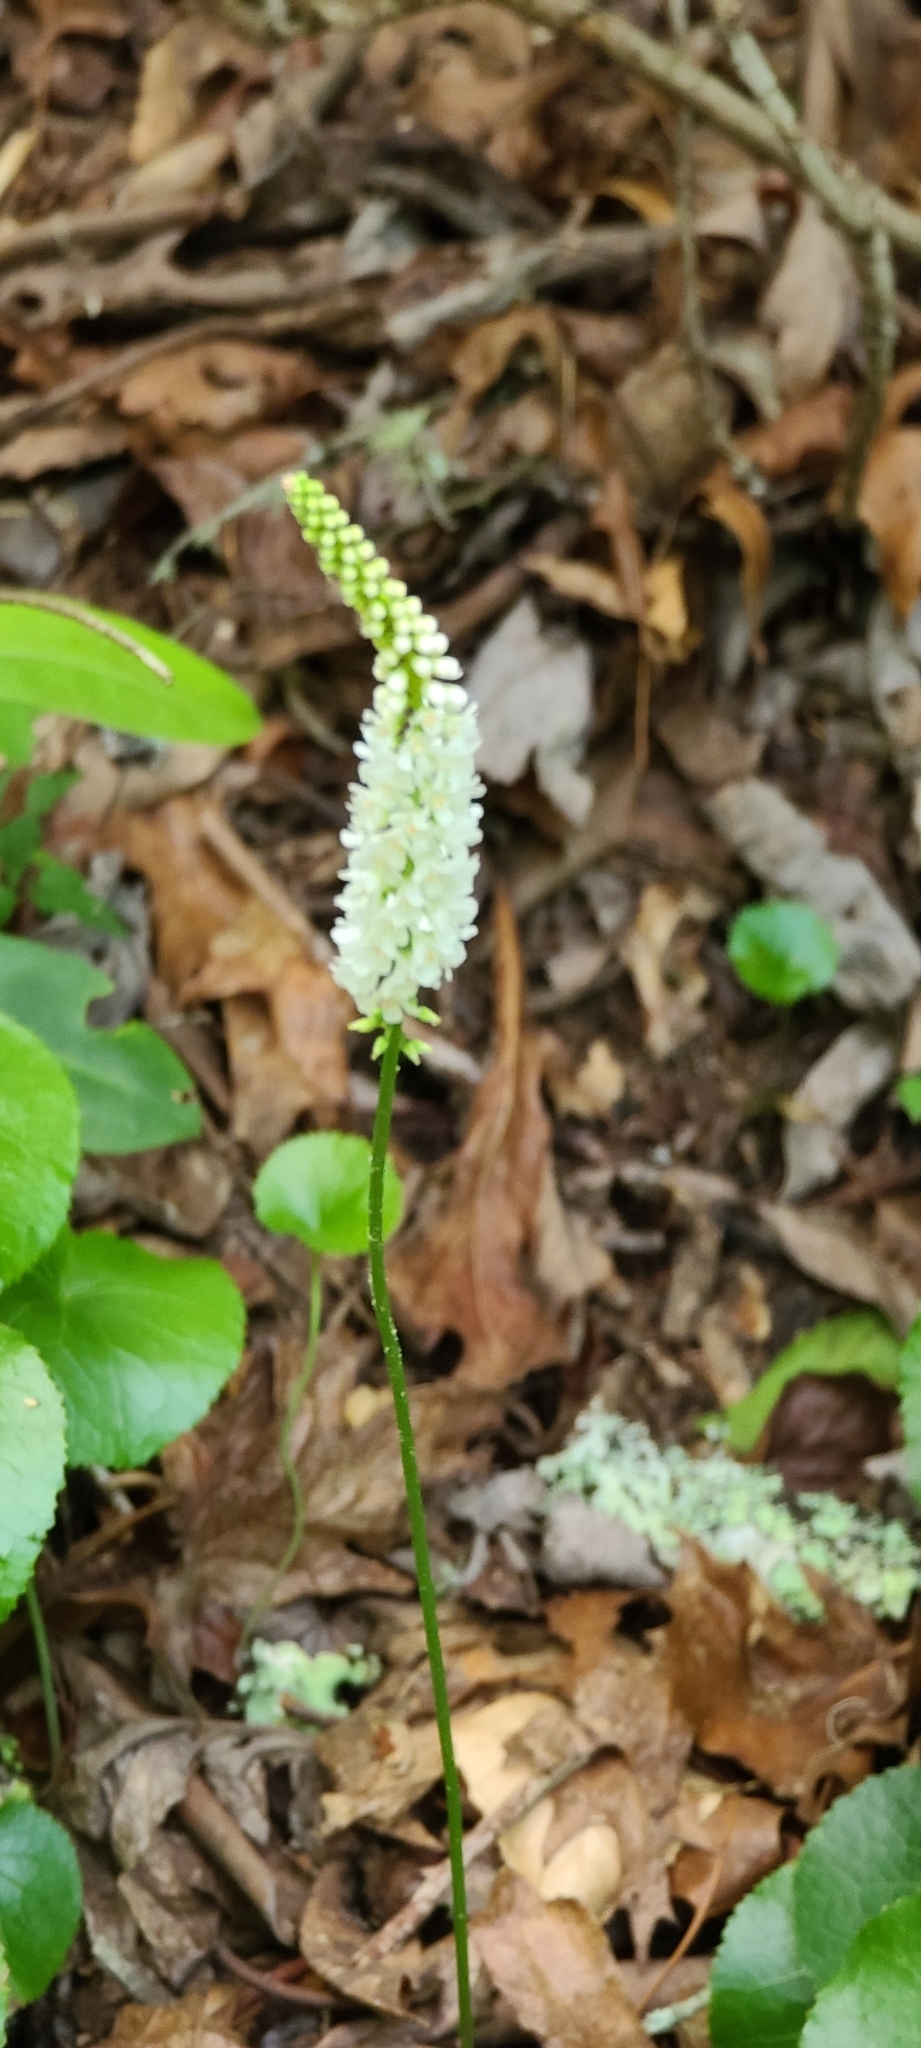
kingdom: Plantae
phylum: Tracheophyta
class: Magnoliopsida
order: Ericales
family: Diapensiaceae
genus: Galax
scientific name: Galax urceolata
